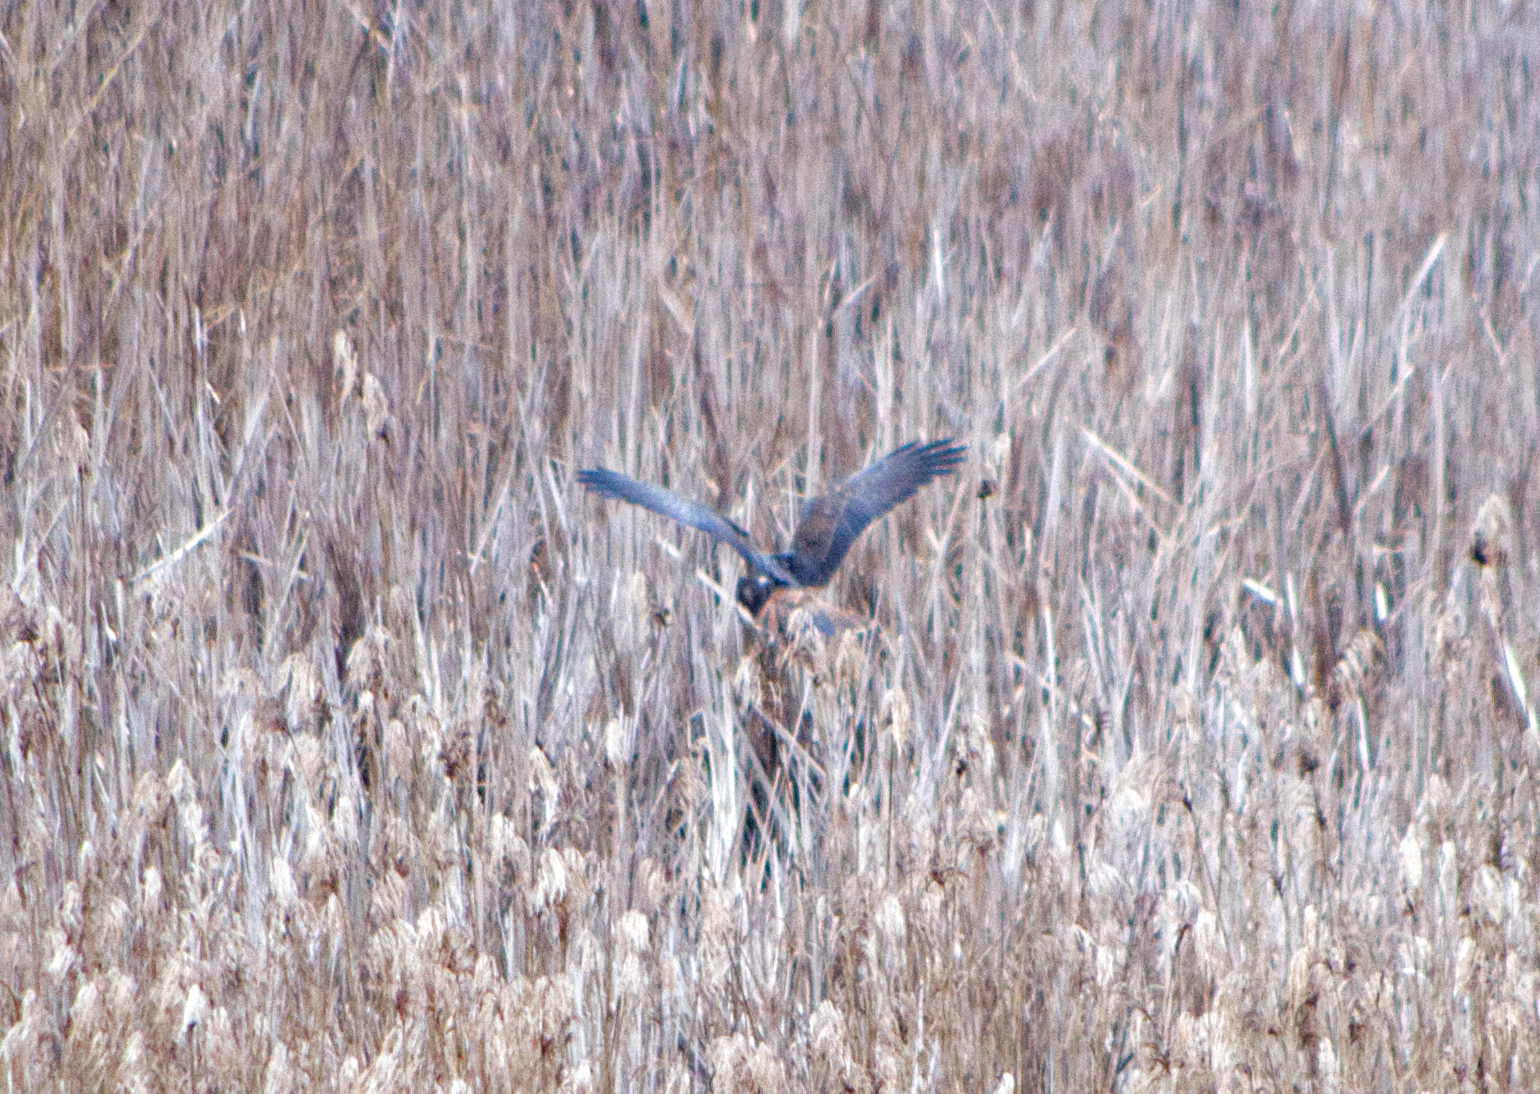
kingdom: Animalia
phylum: Chordata
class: Aves
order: Accipitriformes
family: Accipitridae
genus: Circus
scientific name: Circus aeruginosus
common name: Western marsh harrier
